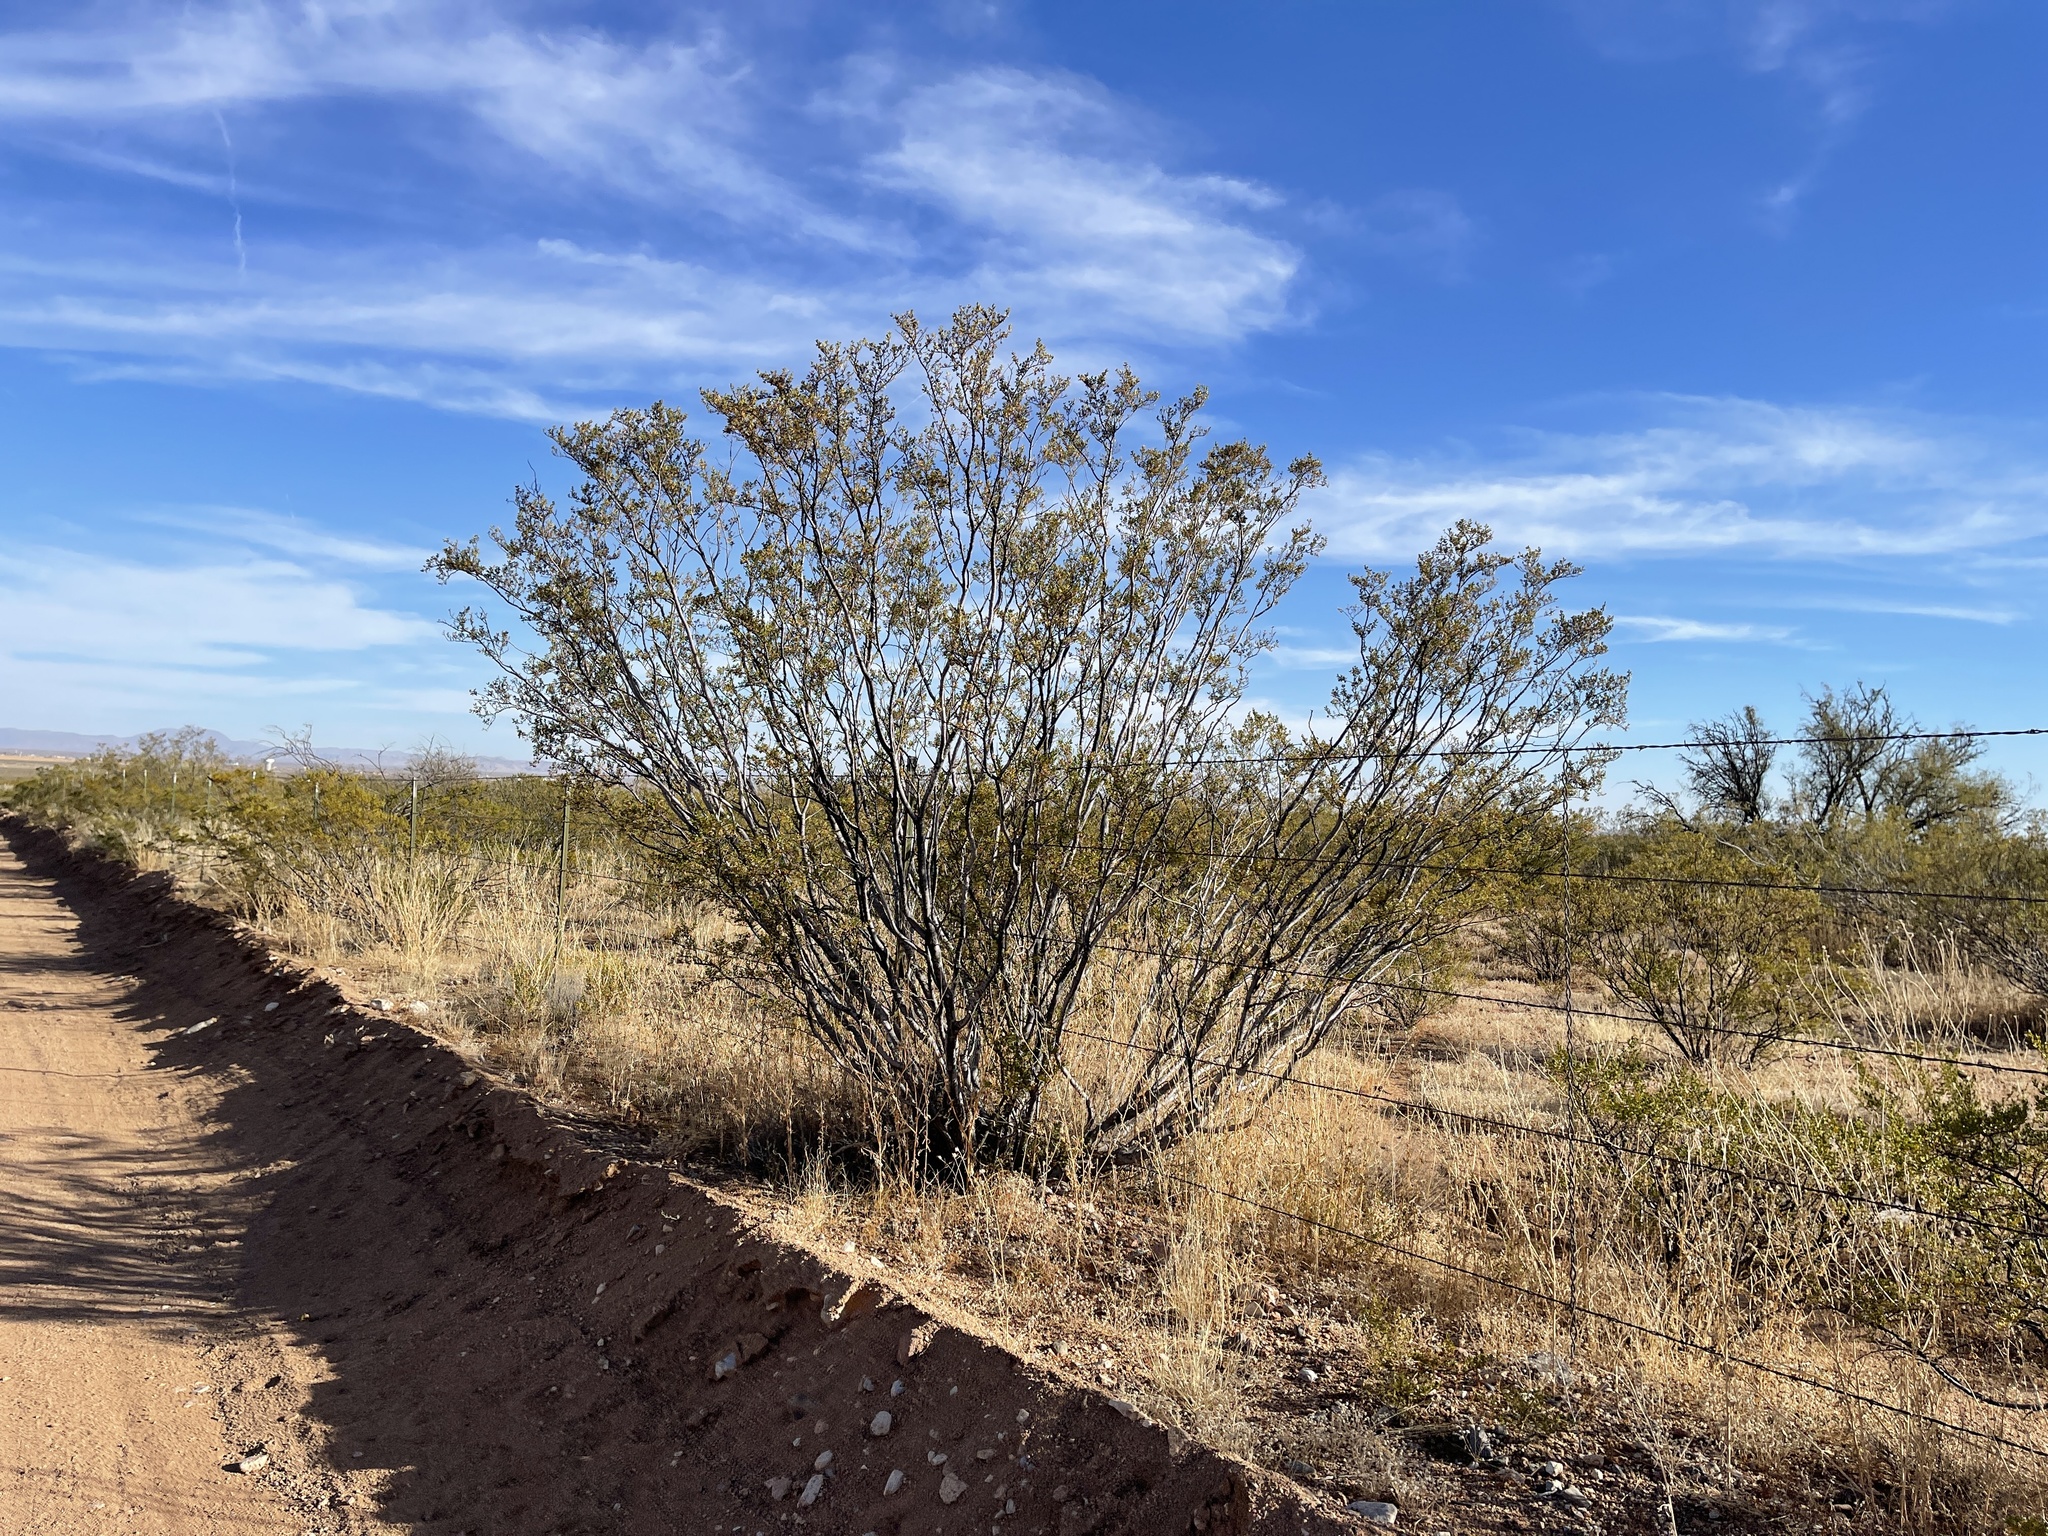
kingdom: Plantae
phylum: Tracheophyta
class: Magnoliopsida
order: Zygophyllales
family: Zygophyllaceae
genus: Larrea
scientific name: Larrea tridentata
